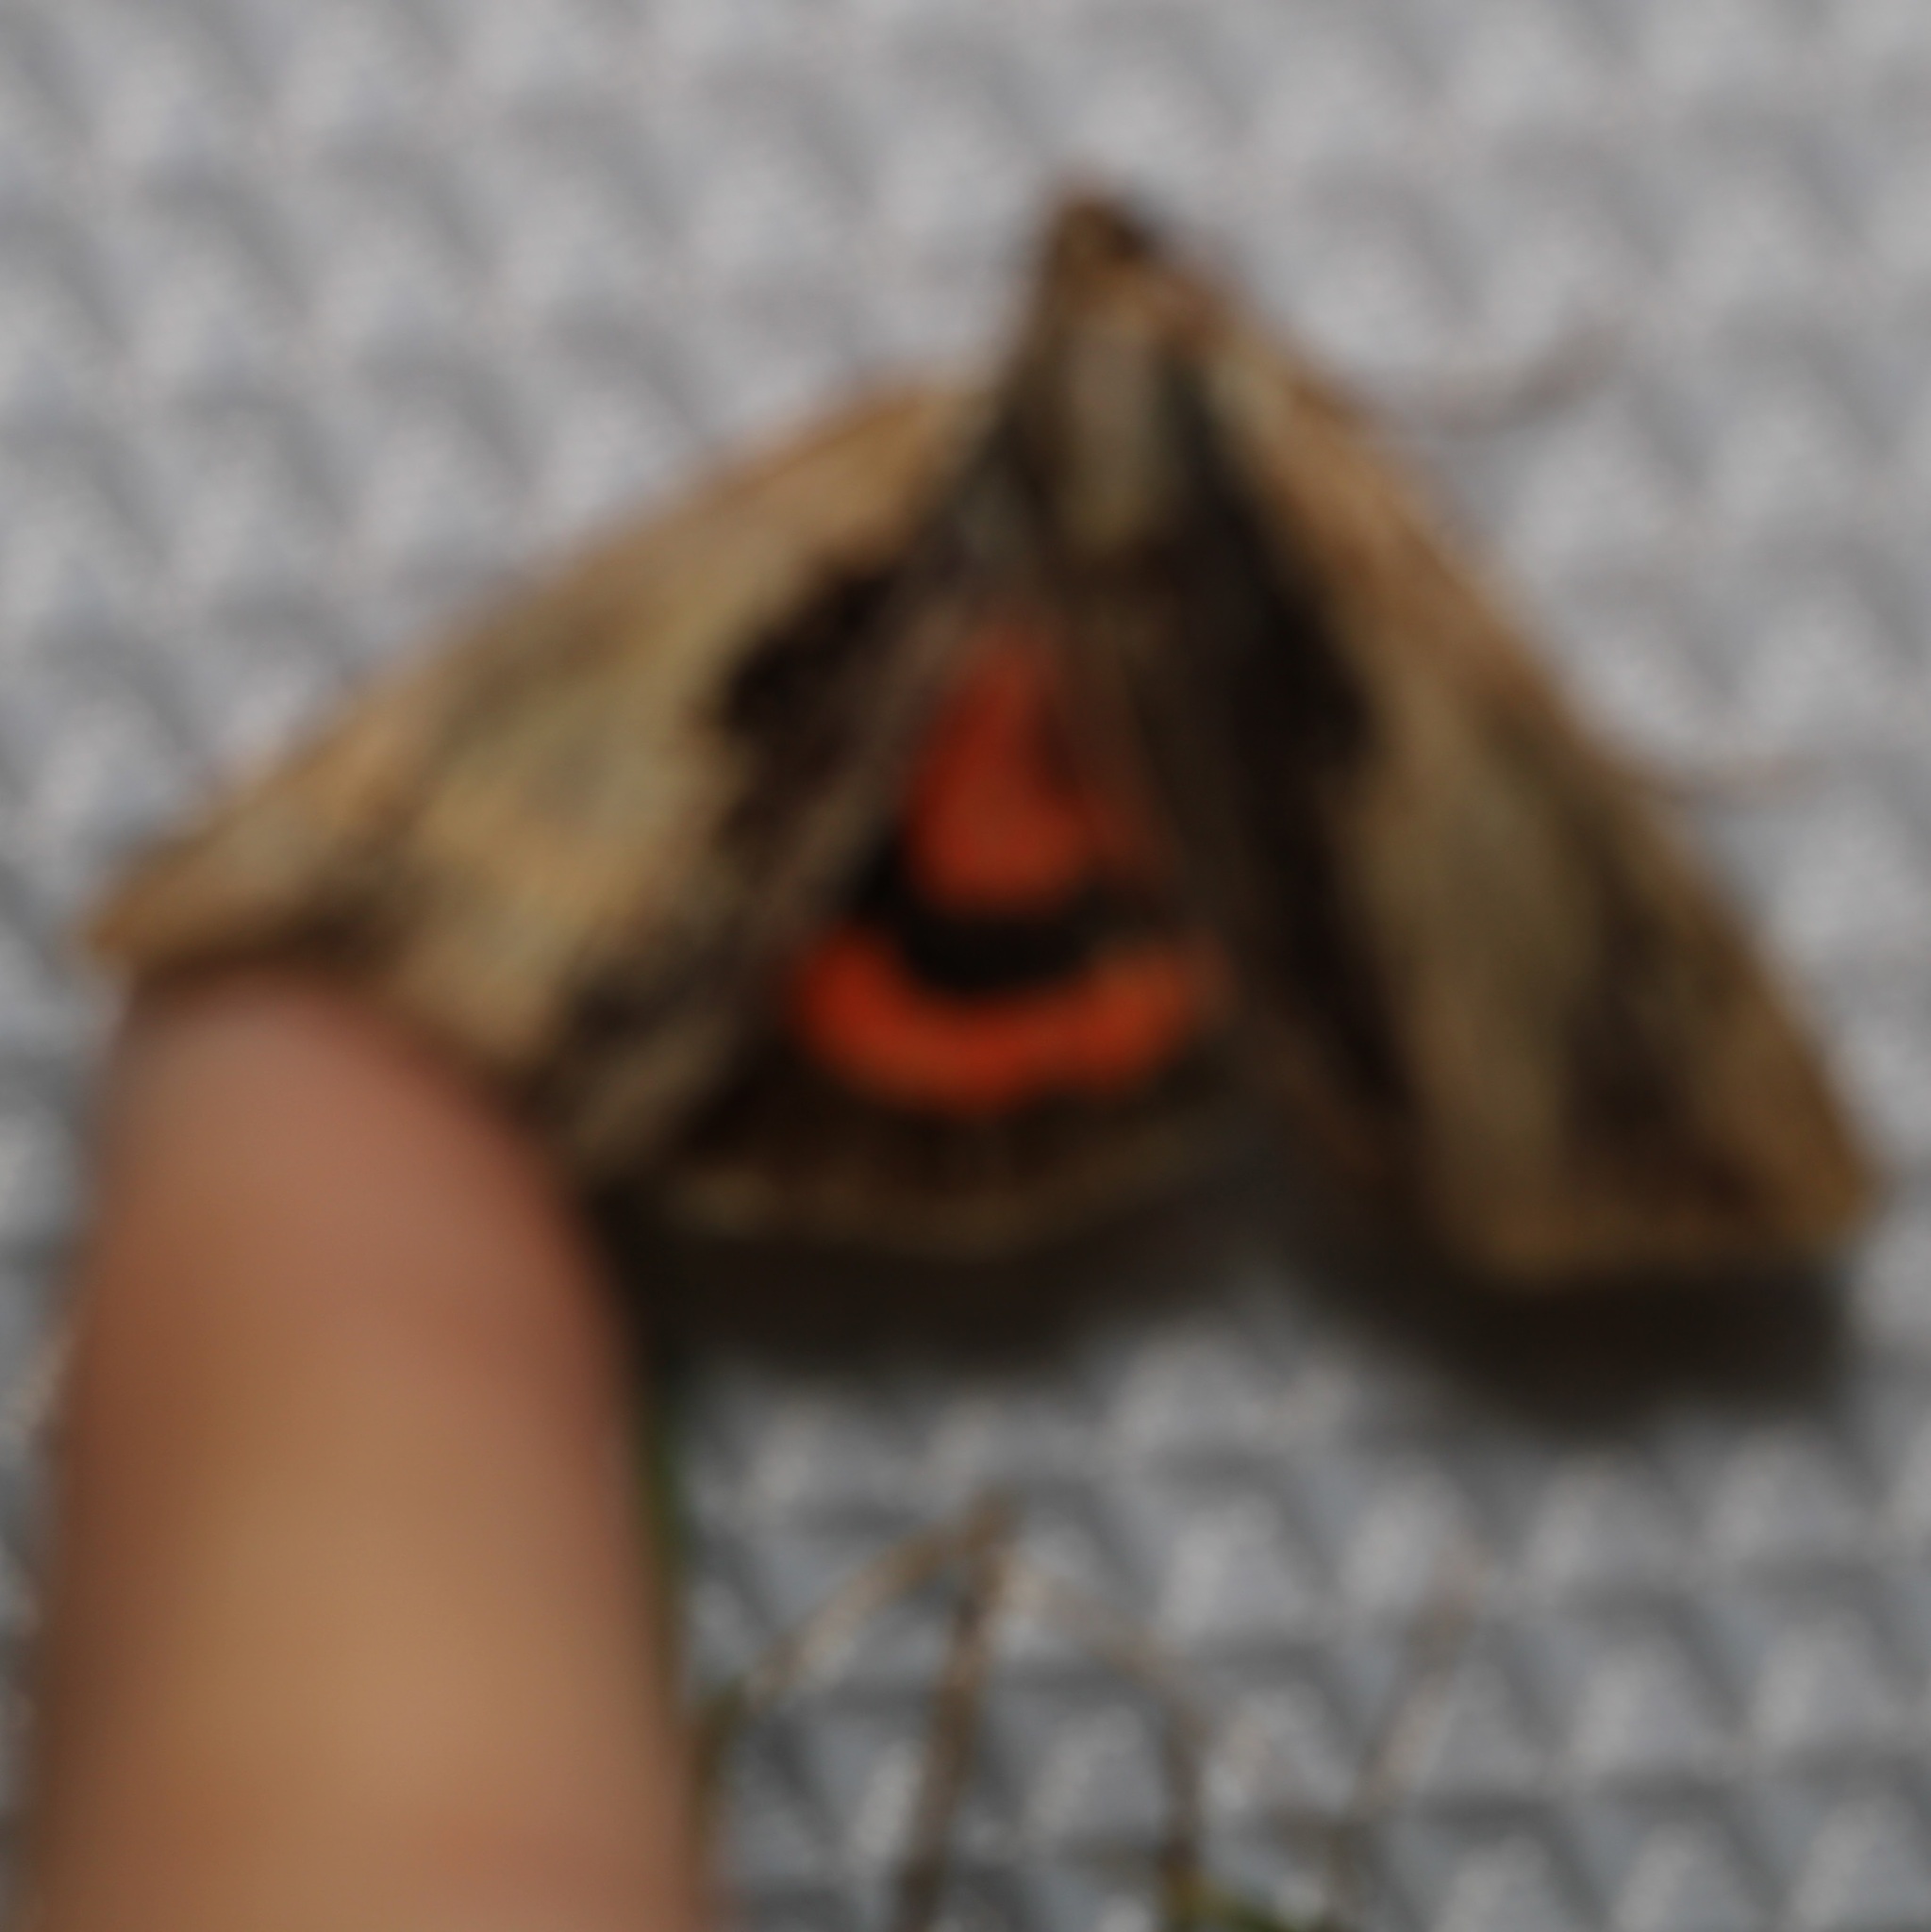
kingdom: Animalia
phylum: Arthropoda
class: Insecta
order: Lepidoptera
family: Erebidae
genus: Catocala
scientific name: Catocala ultronia
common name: Ultronia underwing
